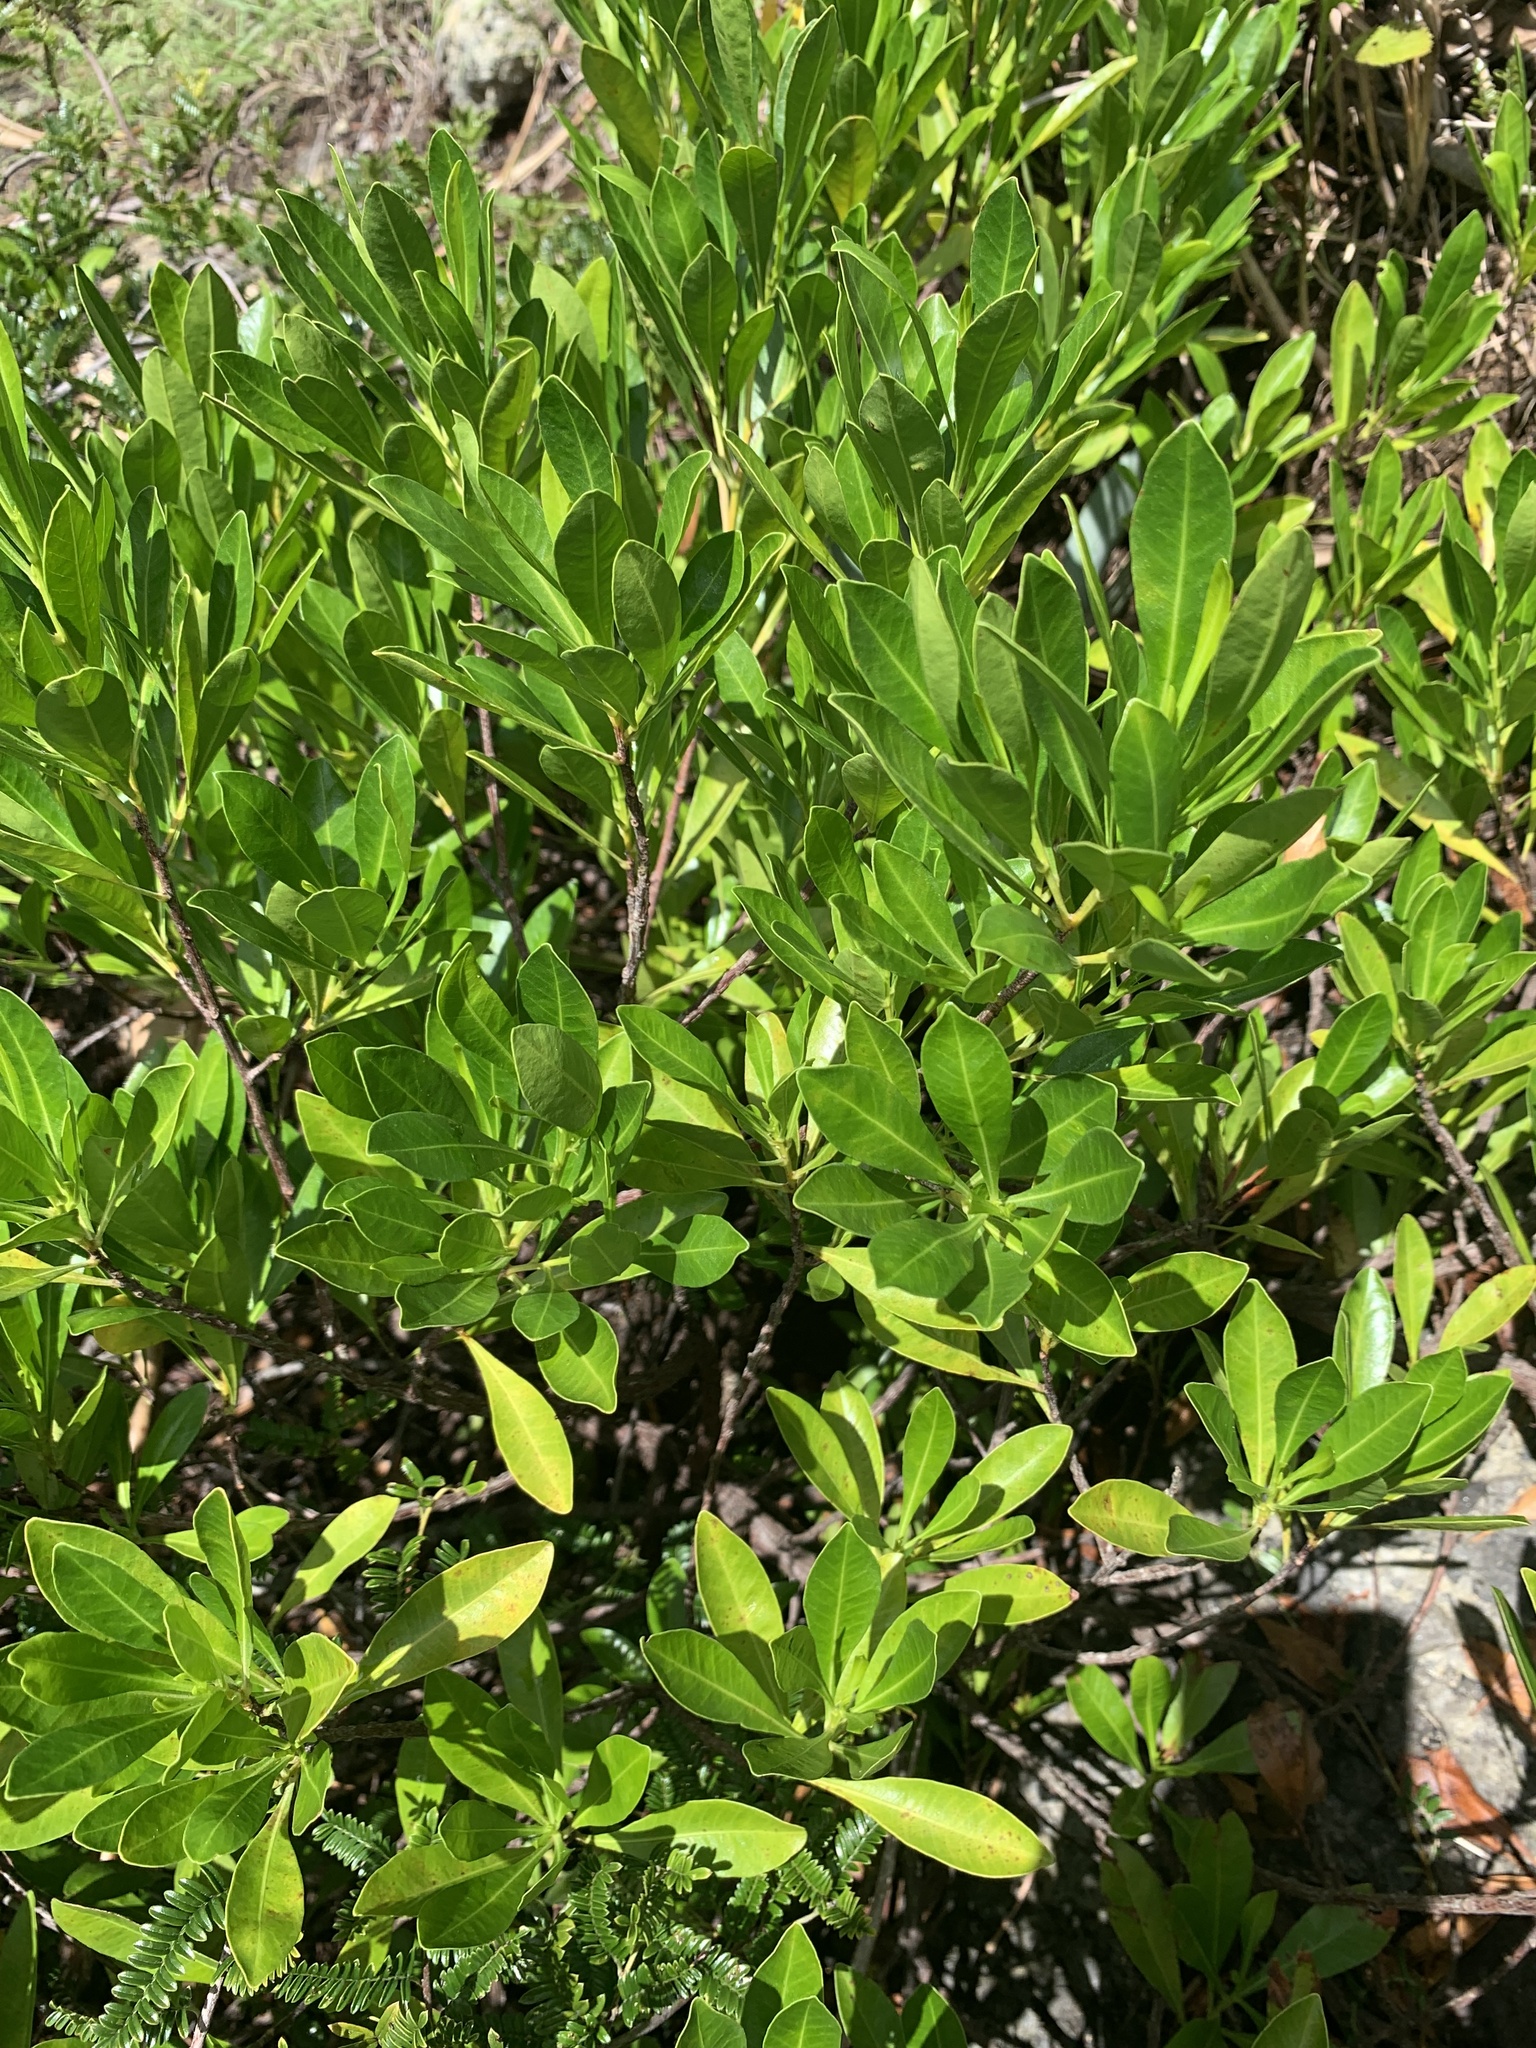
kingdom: Plantae
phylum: Tracheophyta
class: Magnoliopsida
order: Sapindales
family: Sapindaceae
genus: Dodonaea
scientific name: Dodonaea viscosa
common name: Hopbush
